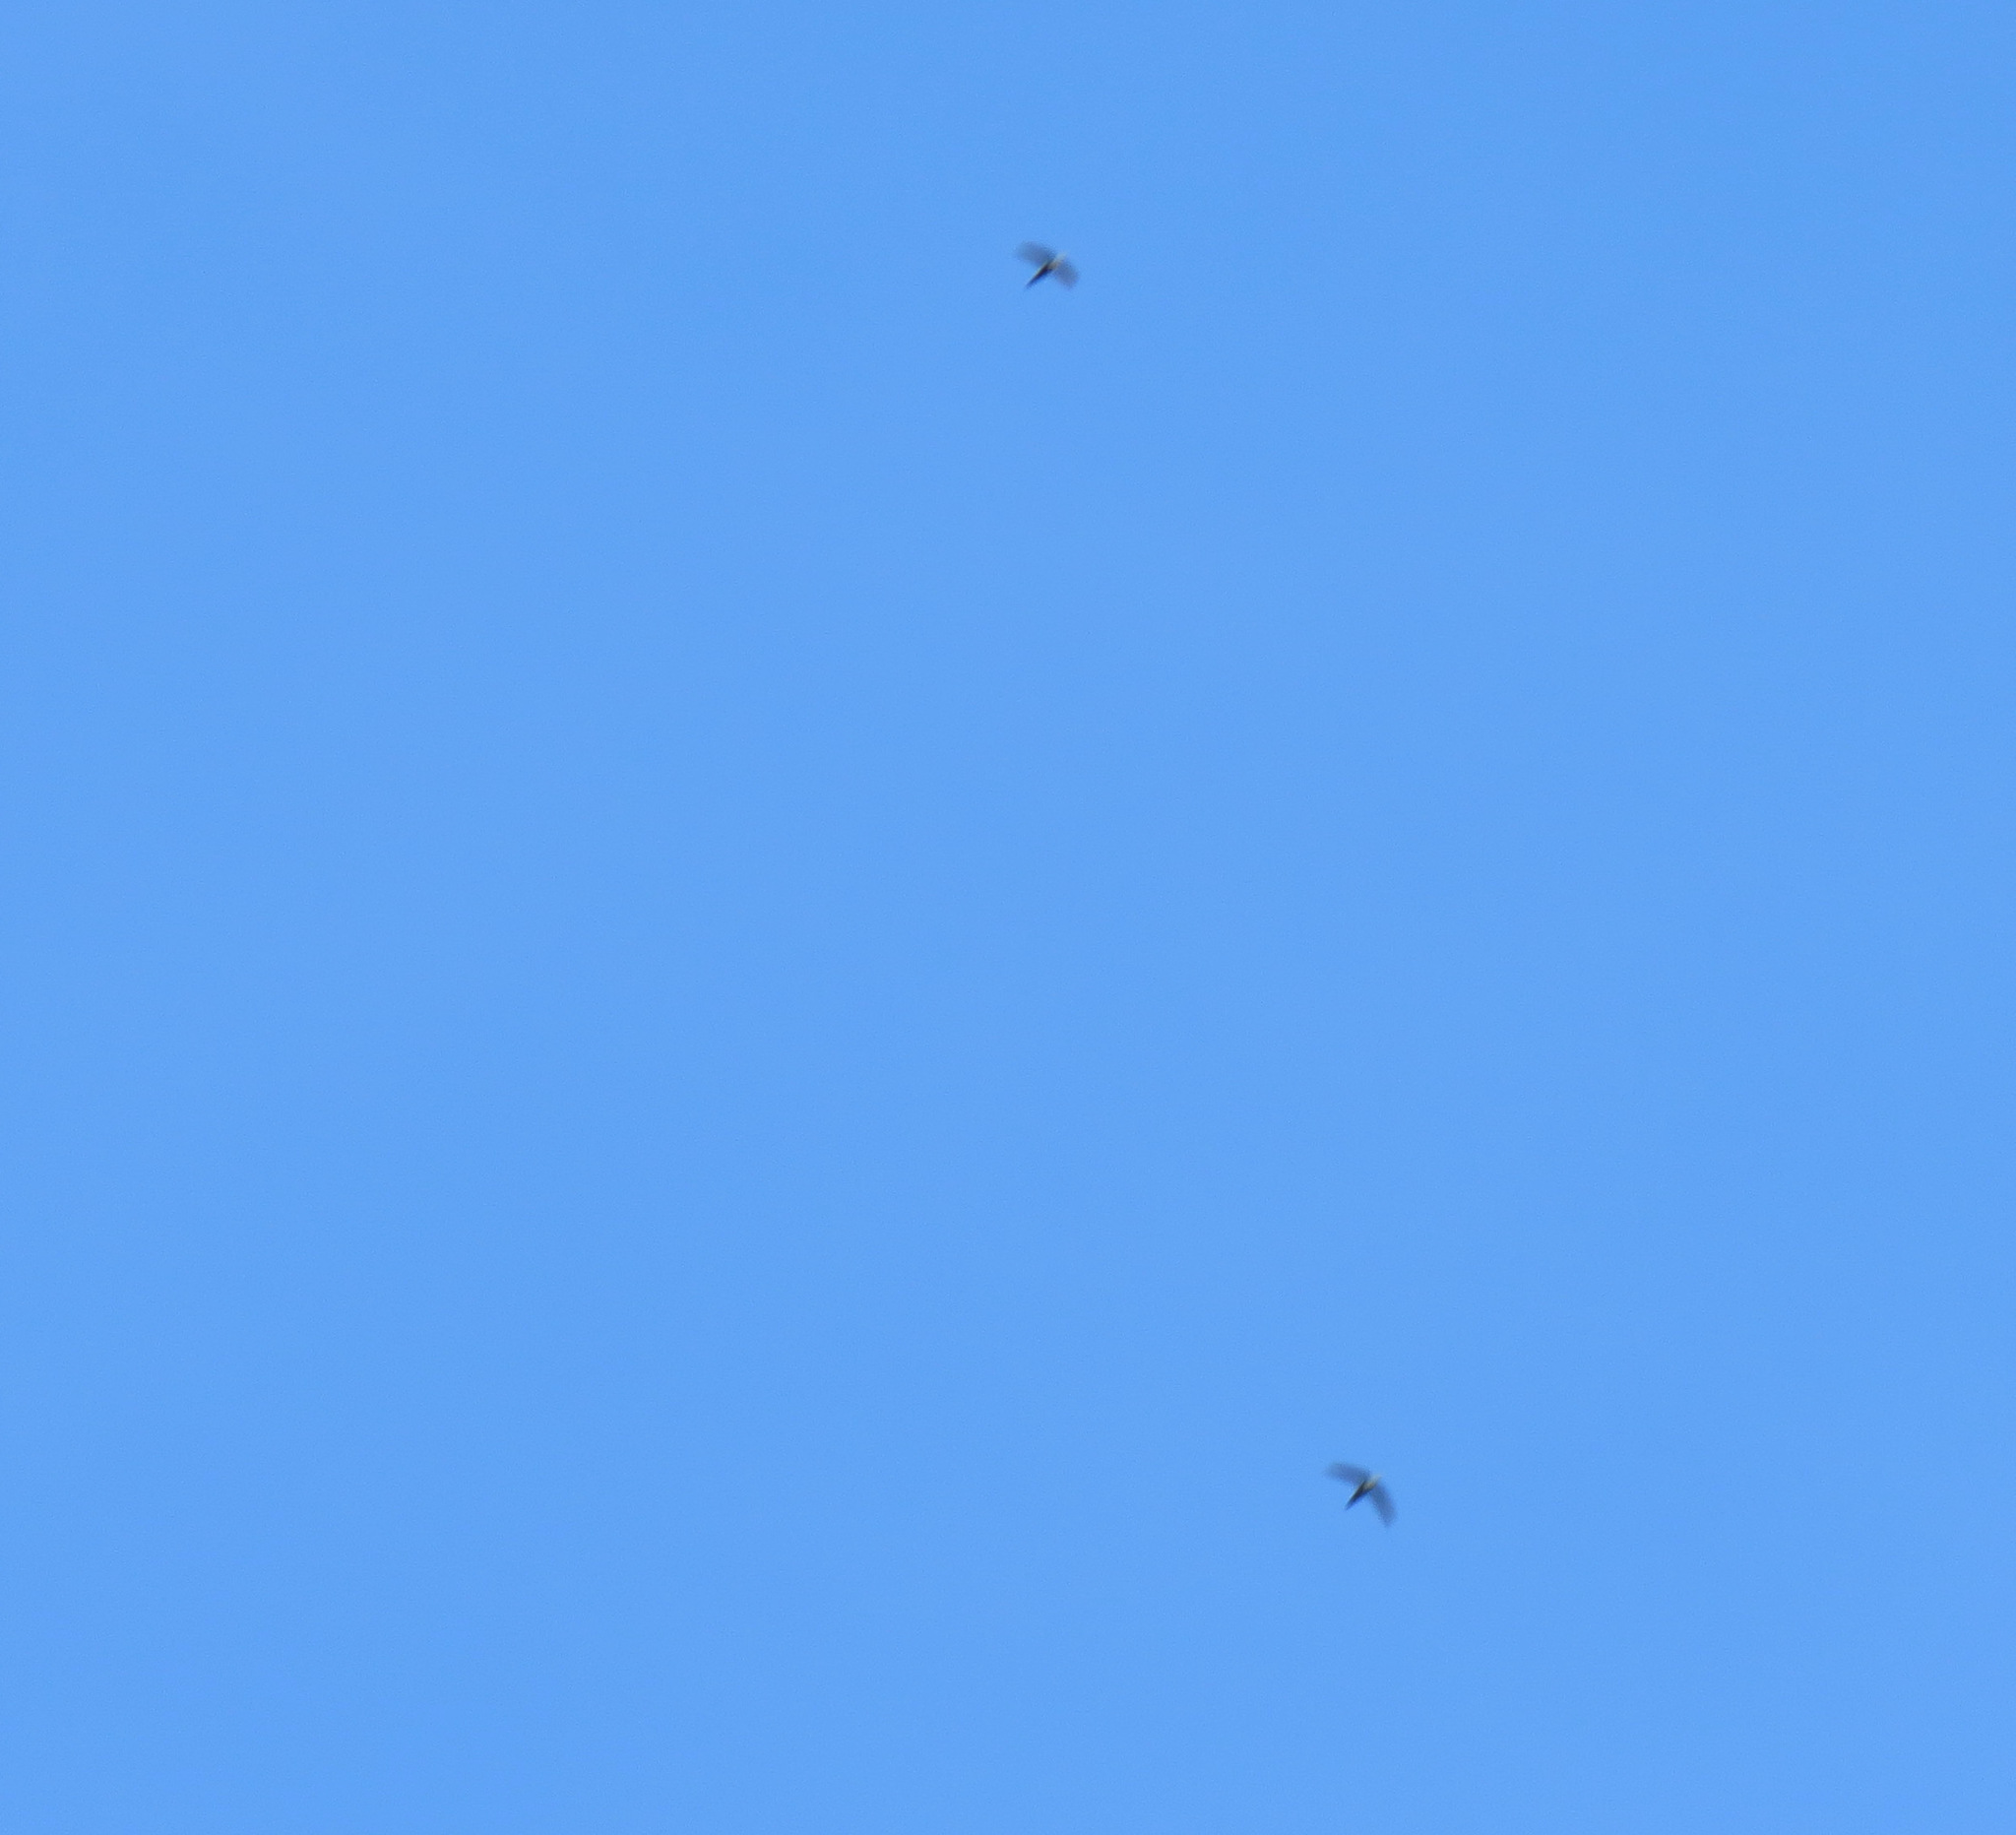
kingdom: Animalia
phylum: Chordata
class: Aves
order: Apodiformes
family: Apodidae
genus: Aeronautes
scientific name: Aeronautes saxatalis
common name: White-throated swift
